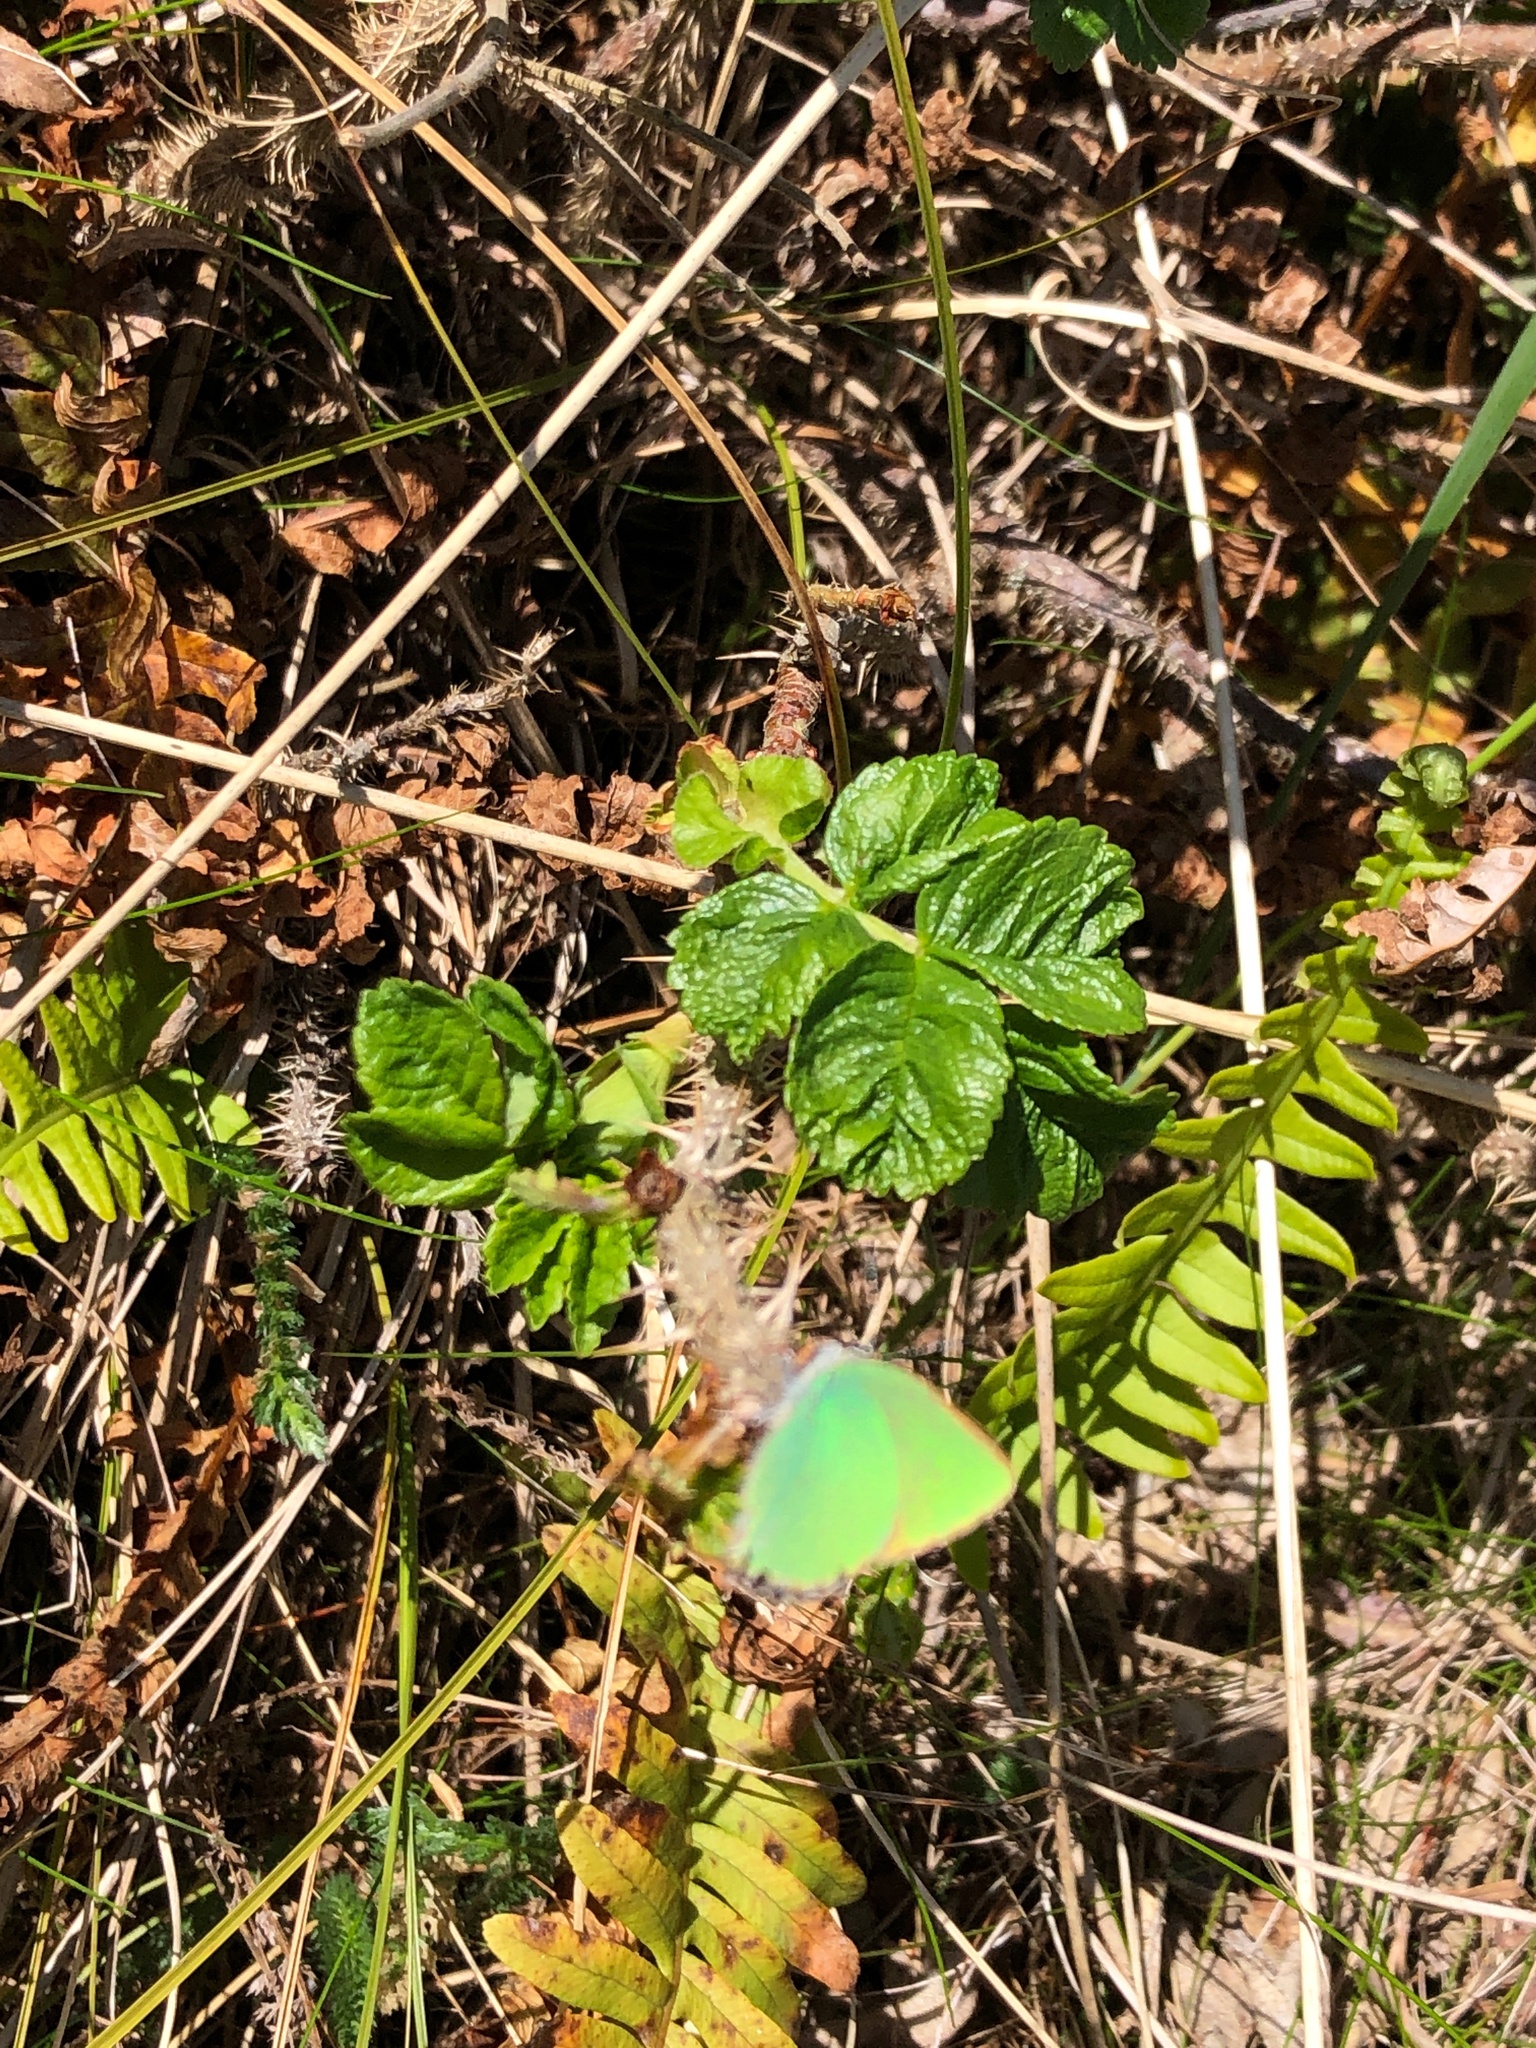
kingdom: Animalia
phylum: Arthropoda
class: Insecta
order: Lepidoptera
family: Lycaenidae
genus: Callophrys
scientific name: Callophrys rubi
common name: Green hairstreak
